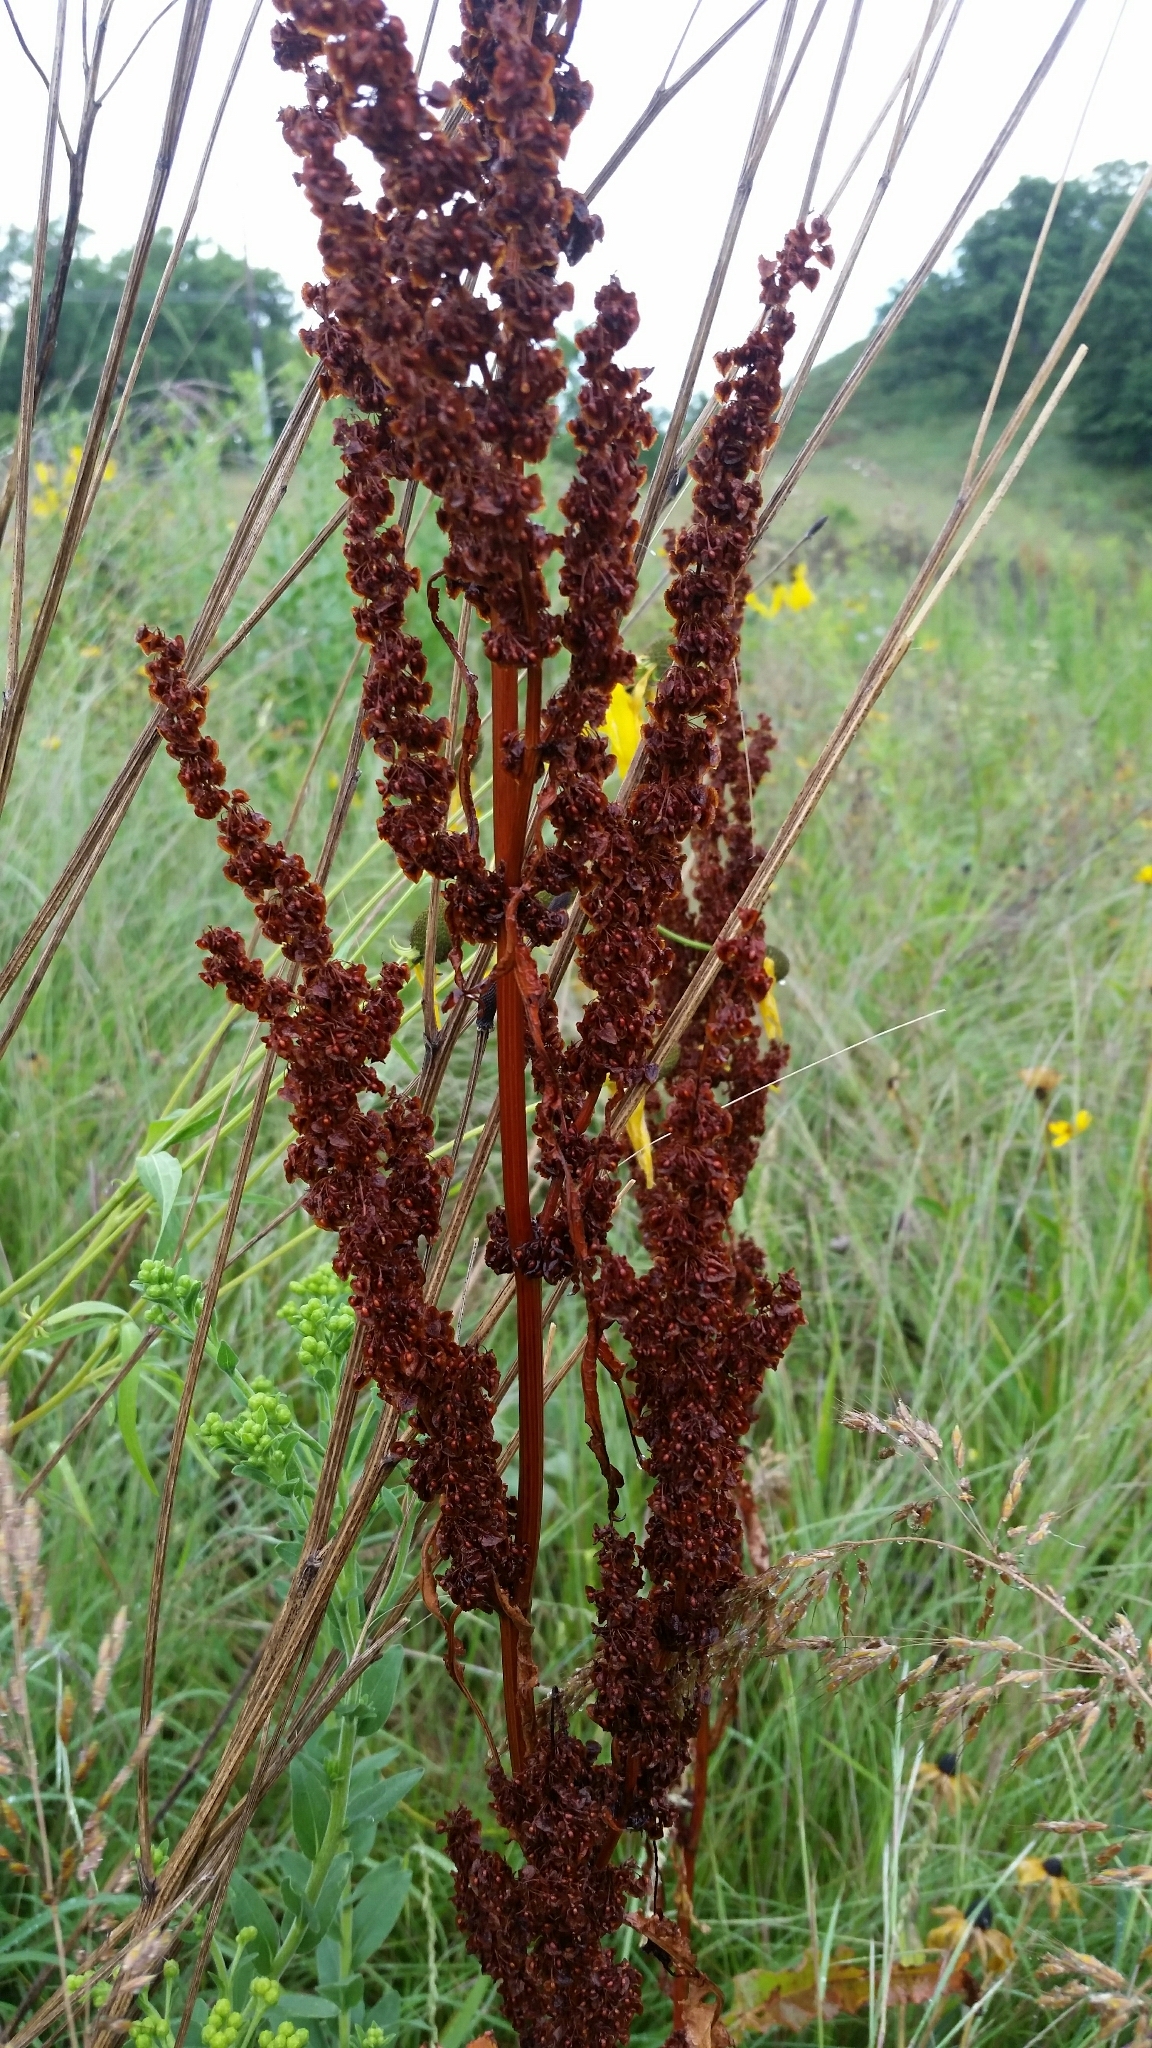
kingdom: Plantae
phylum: Tracheophyta
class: Magnoliopsida
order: Caryophyllales
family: Polygonaceae
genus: Rumex
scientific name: Rumex crispus
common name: Curled dock
